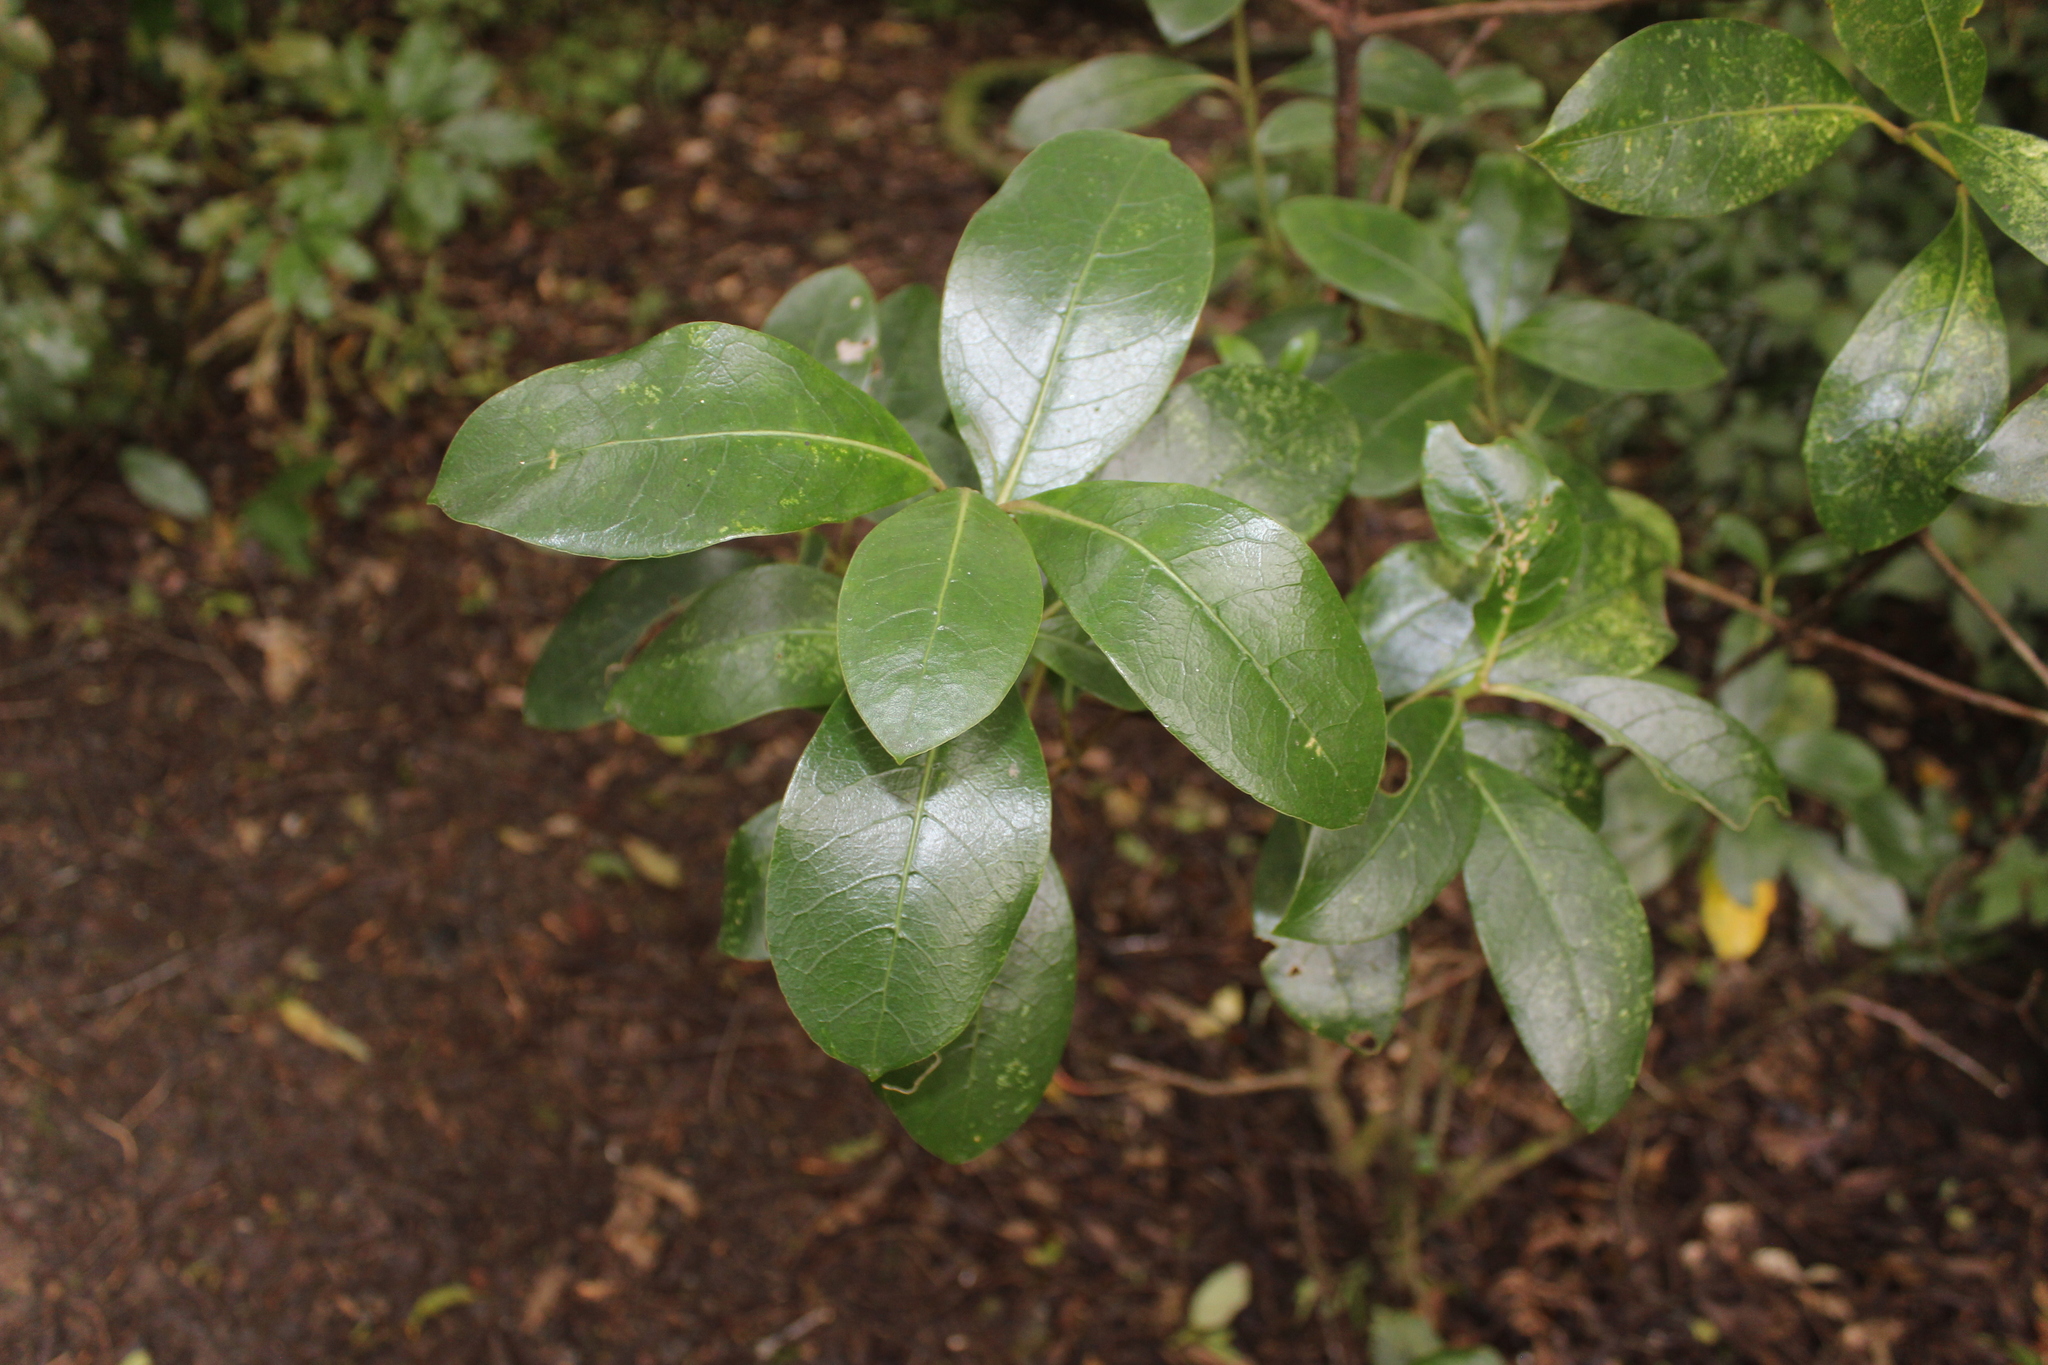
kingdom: Plantae
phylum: Tracheophyta
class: Magnoliopsida
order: Gentianales
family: Rubiaceae
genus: Coprosma
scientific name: Coprosma lucida
